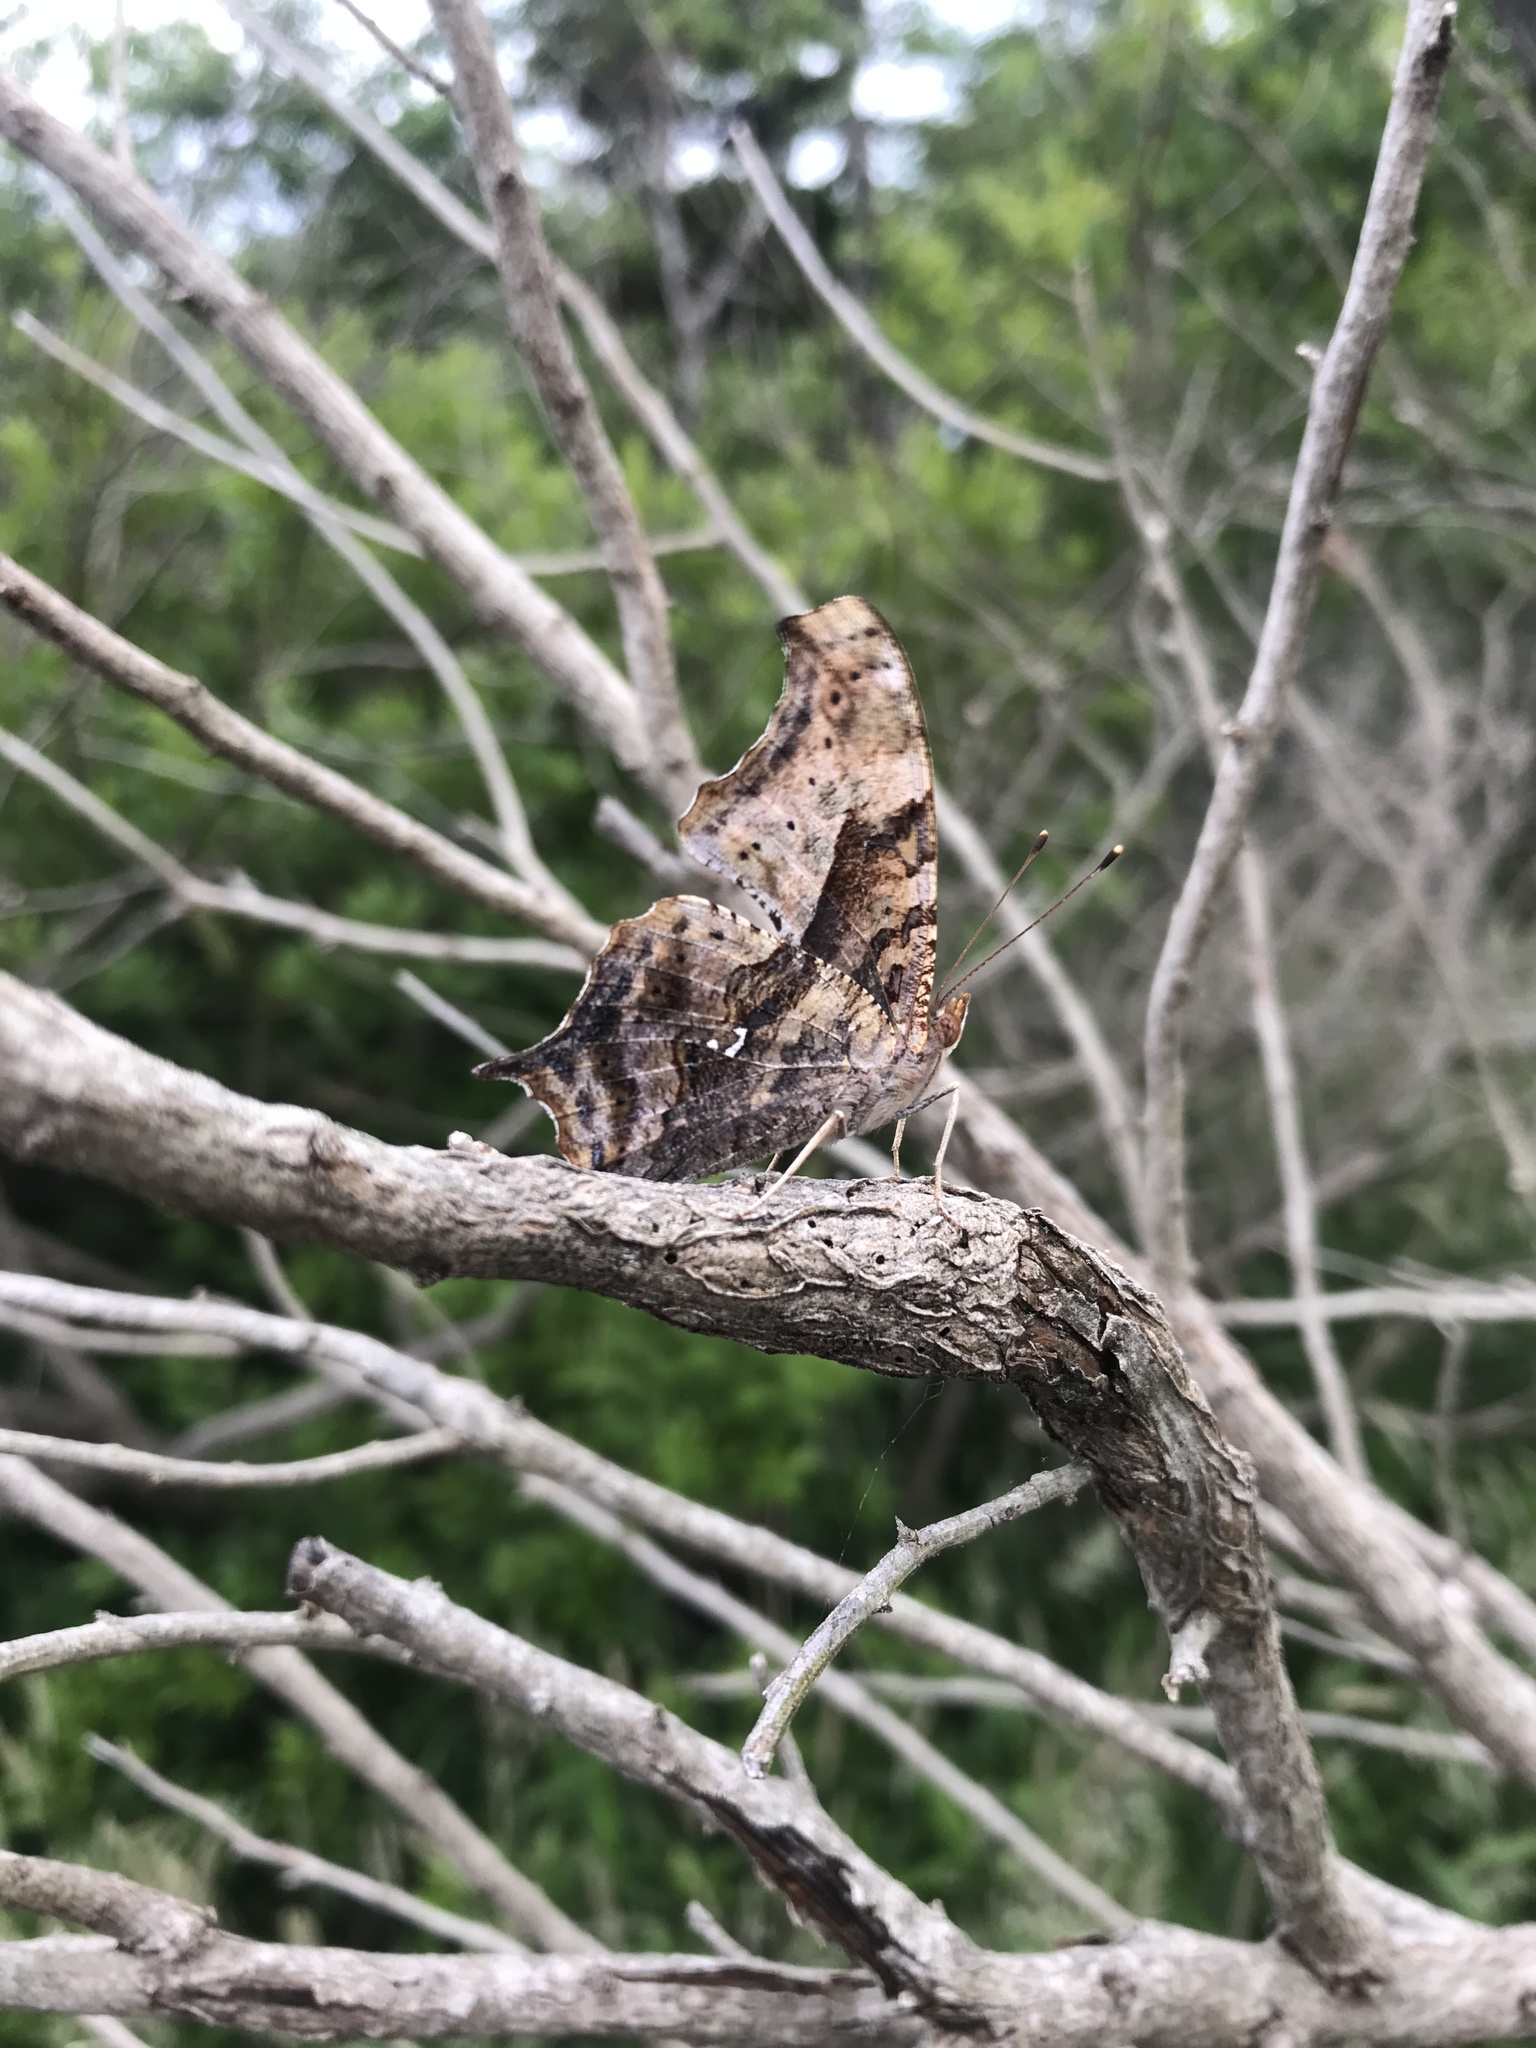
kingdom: Animalia
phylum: Arthropoda
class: Insecta
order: Lepidoptera
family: Nymphalidae
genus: Polygonia
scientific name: Polygonia interrogationis
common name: Question mark
